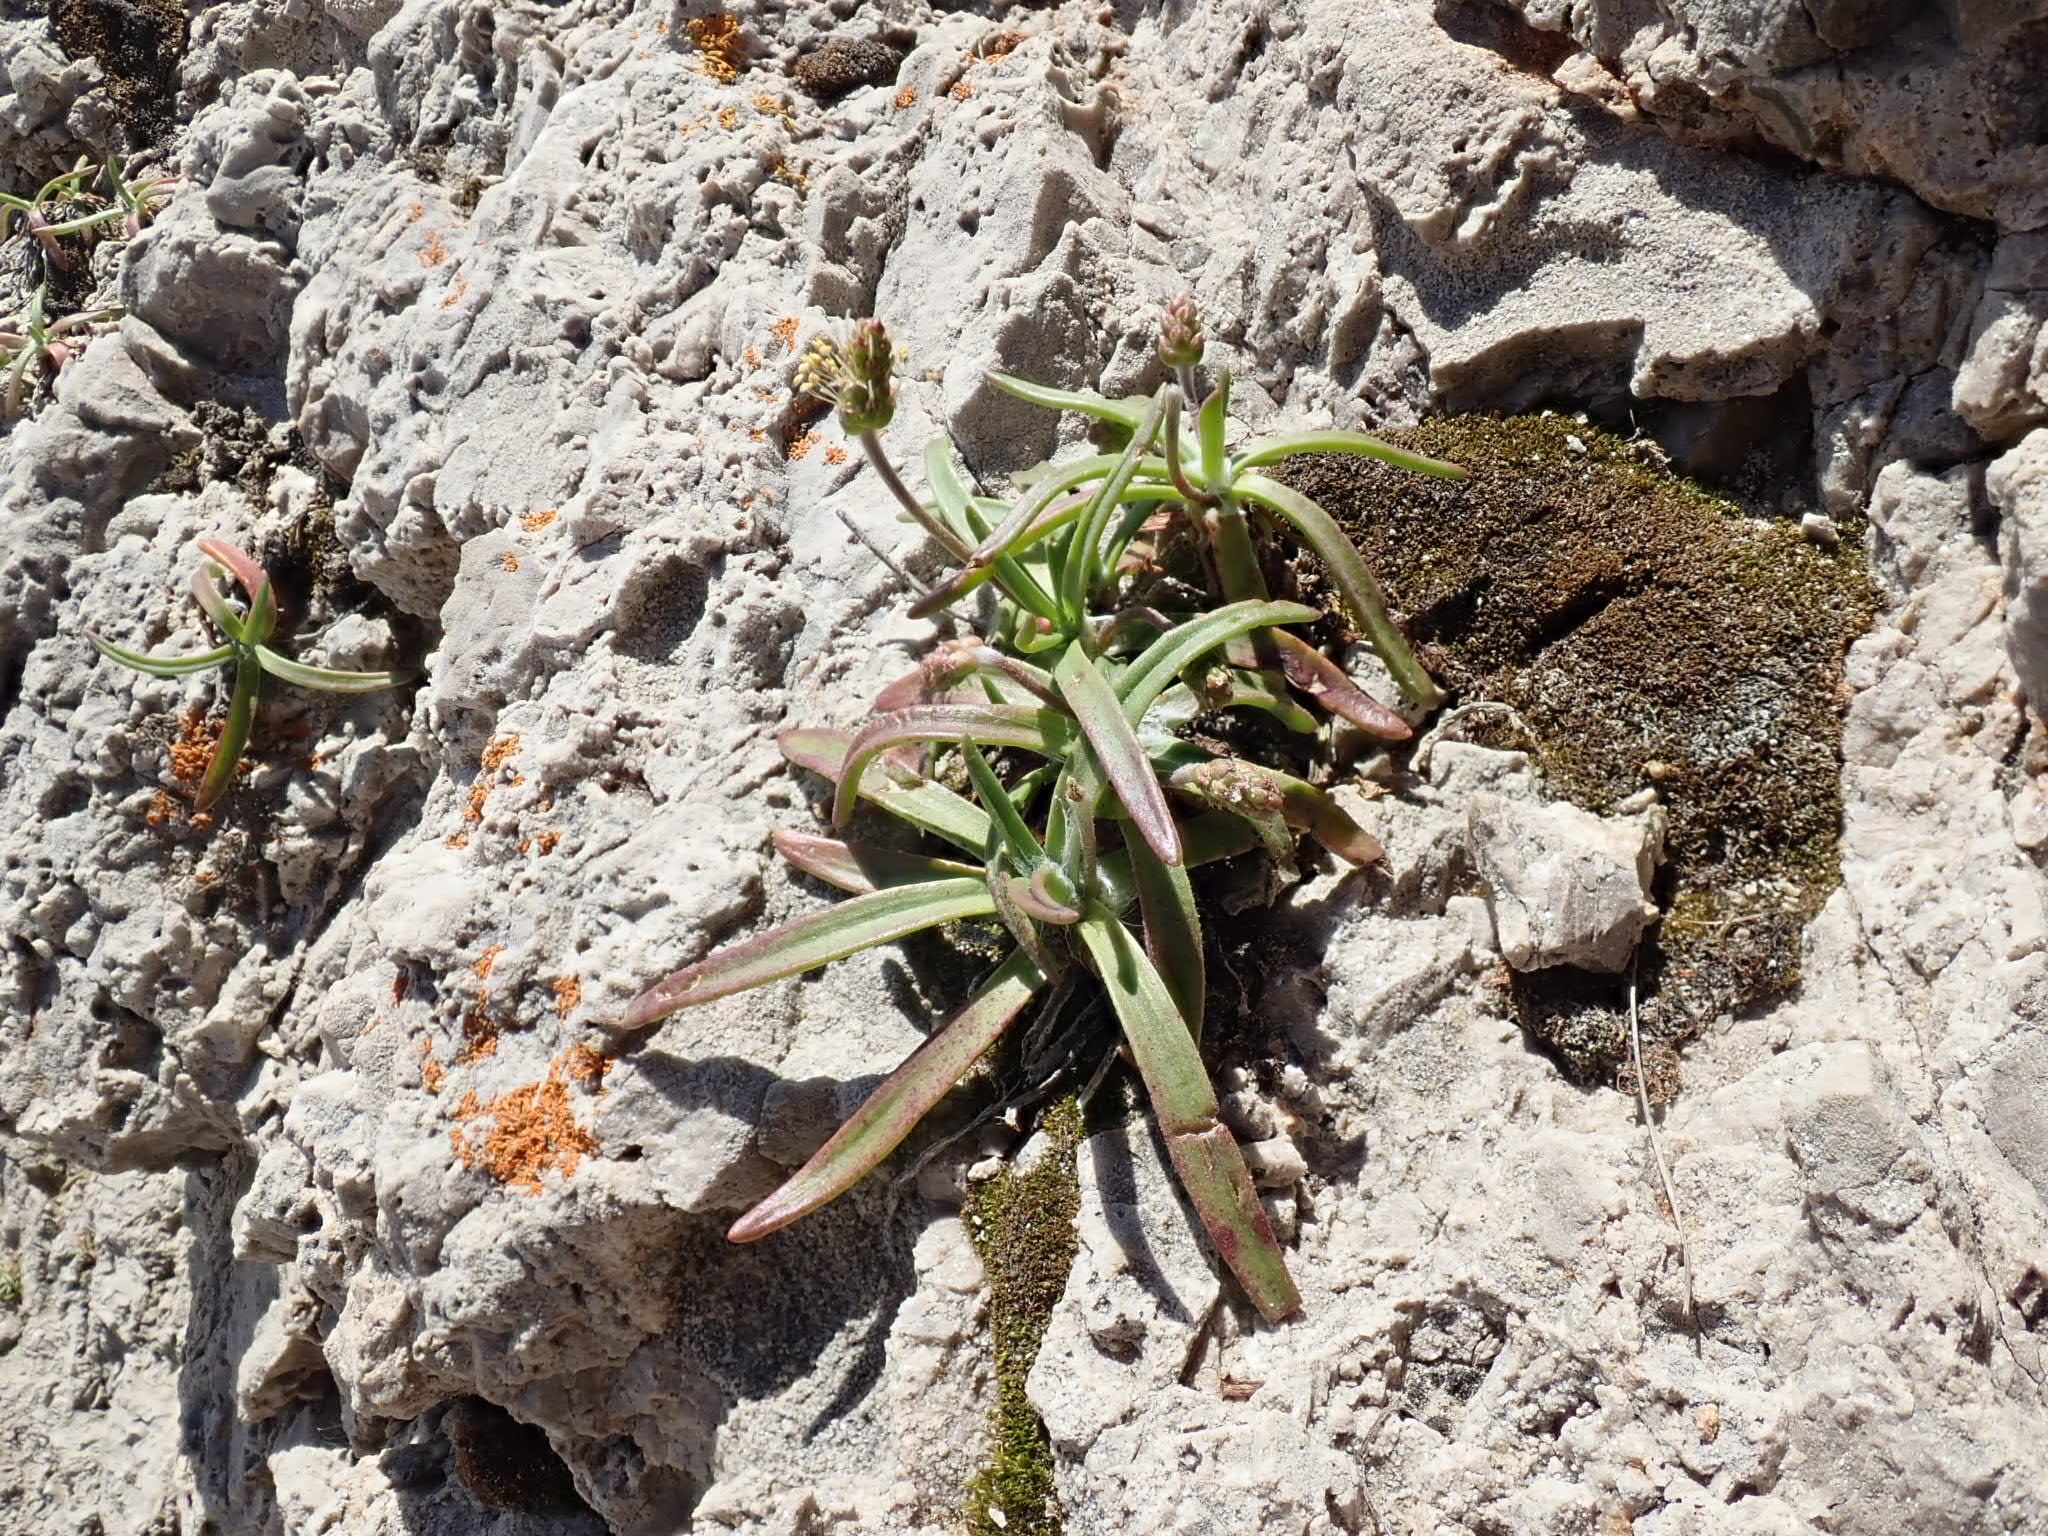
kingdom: Plantae
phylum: Tracheophyta
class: Magnoliopsida
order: Lamiales
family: Plantaginaceae
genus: Plantago
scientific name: Plantago maritima
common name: Sea plantain
